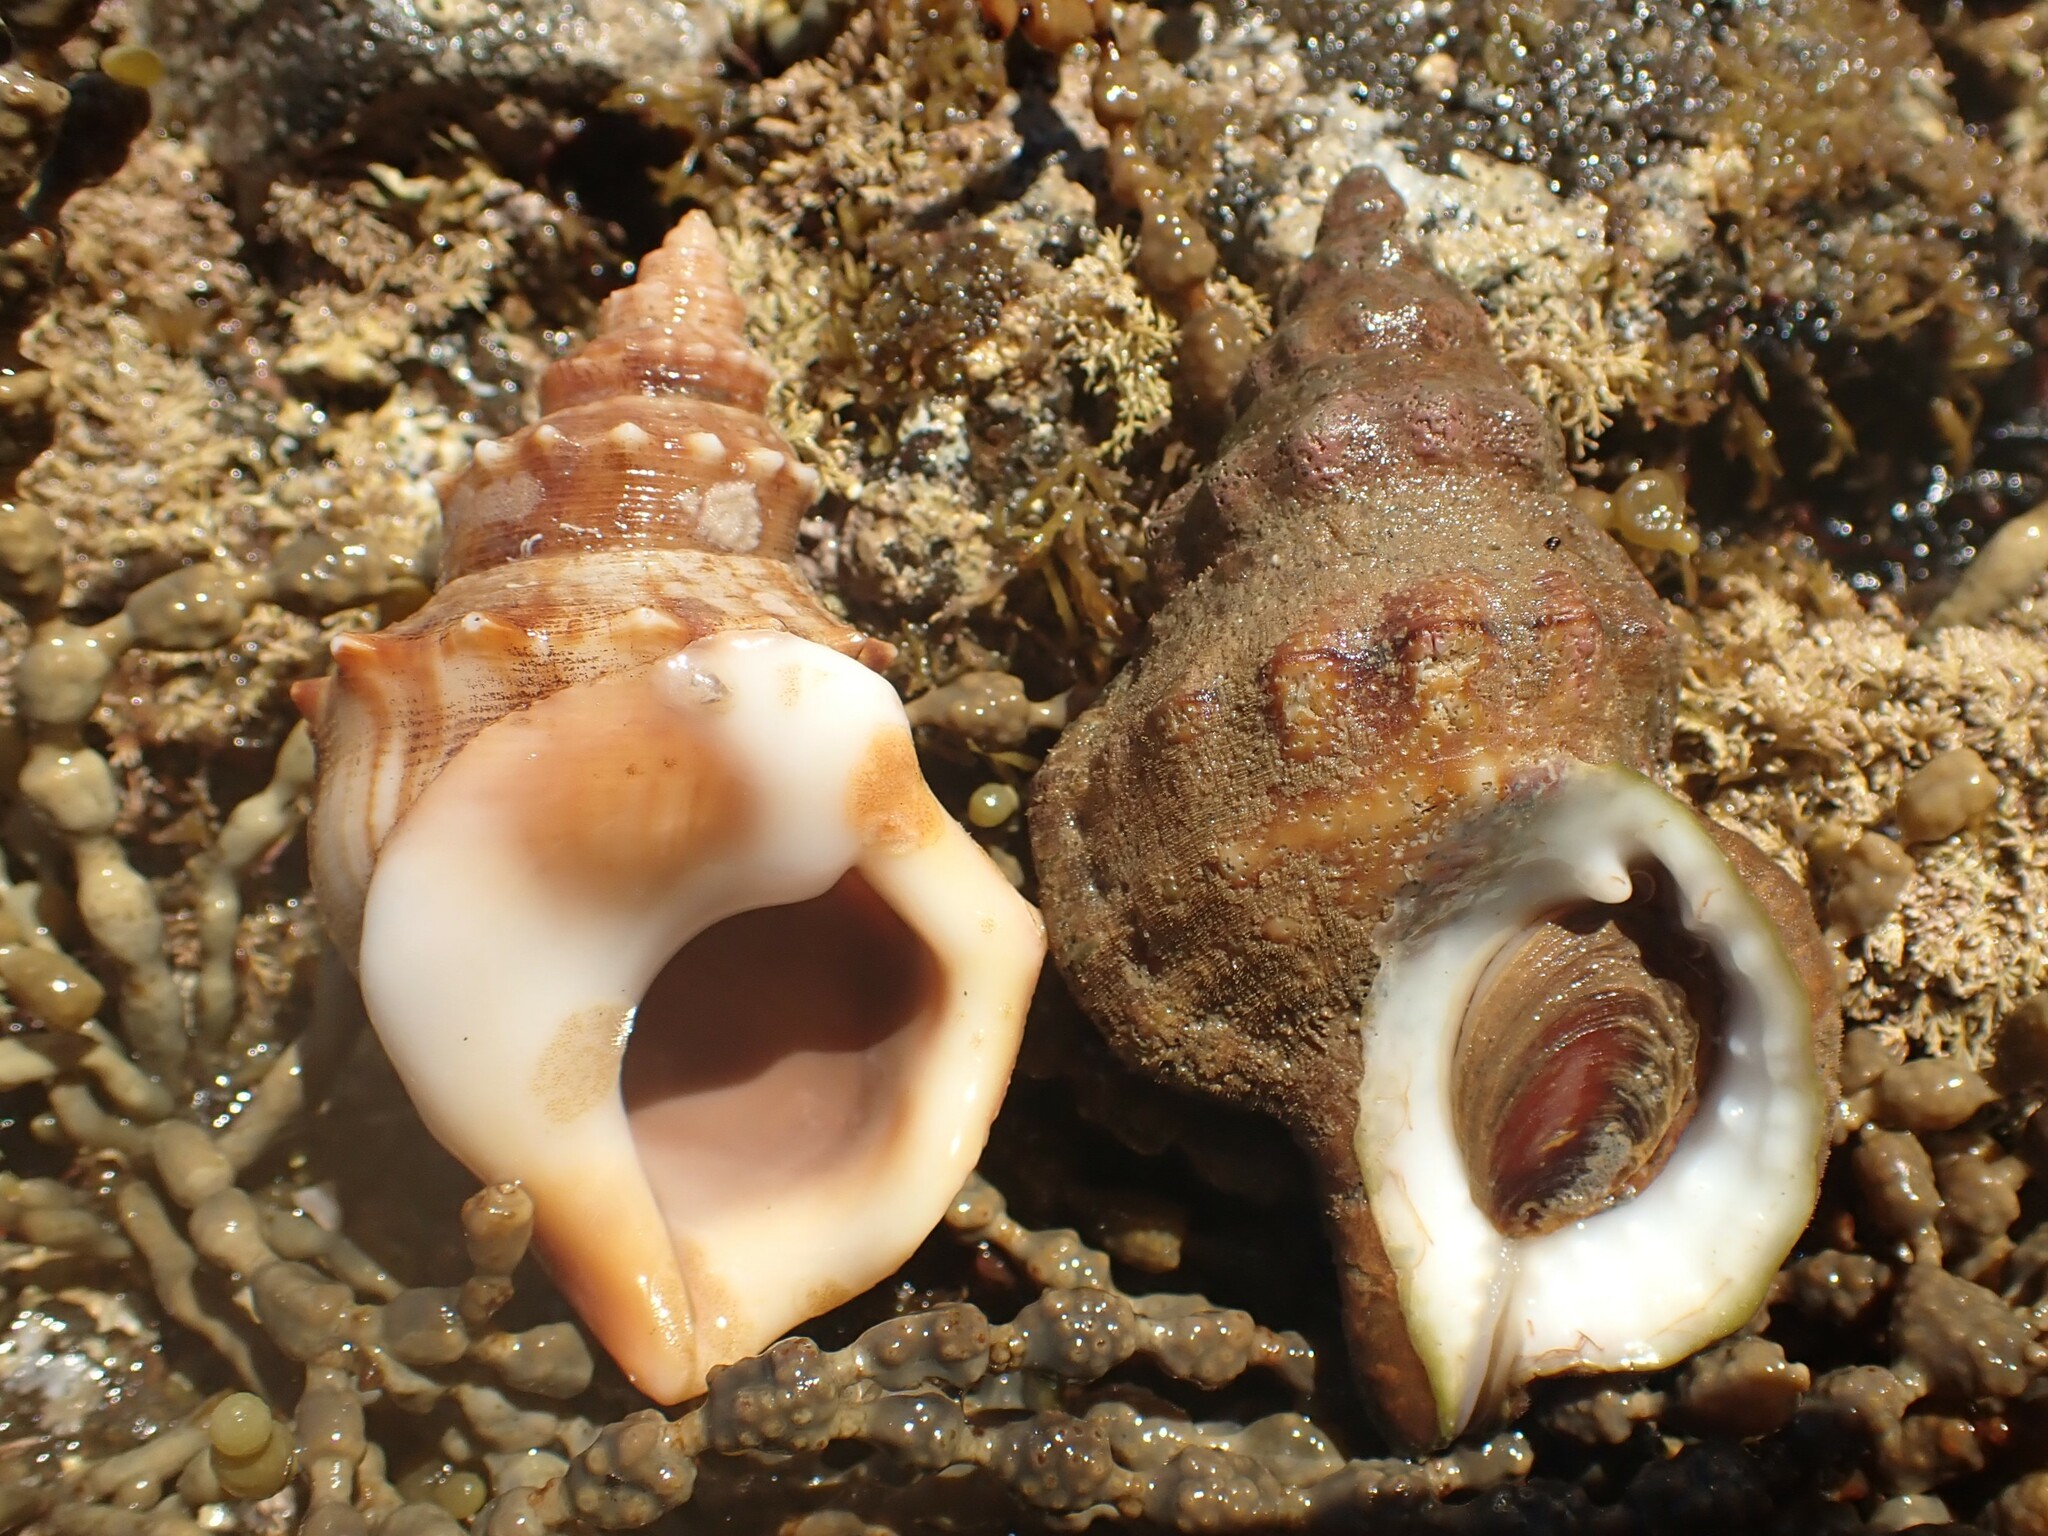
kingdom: Animalia
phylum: Mollusca
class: Gastropoda
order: Littorinimorpha
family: Struthiolariidae
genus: Struthiolaria
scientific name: Struthiolaria papulosa
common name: Large ostrich foot
